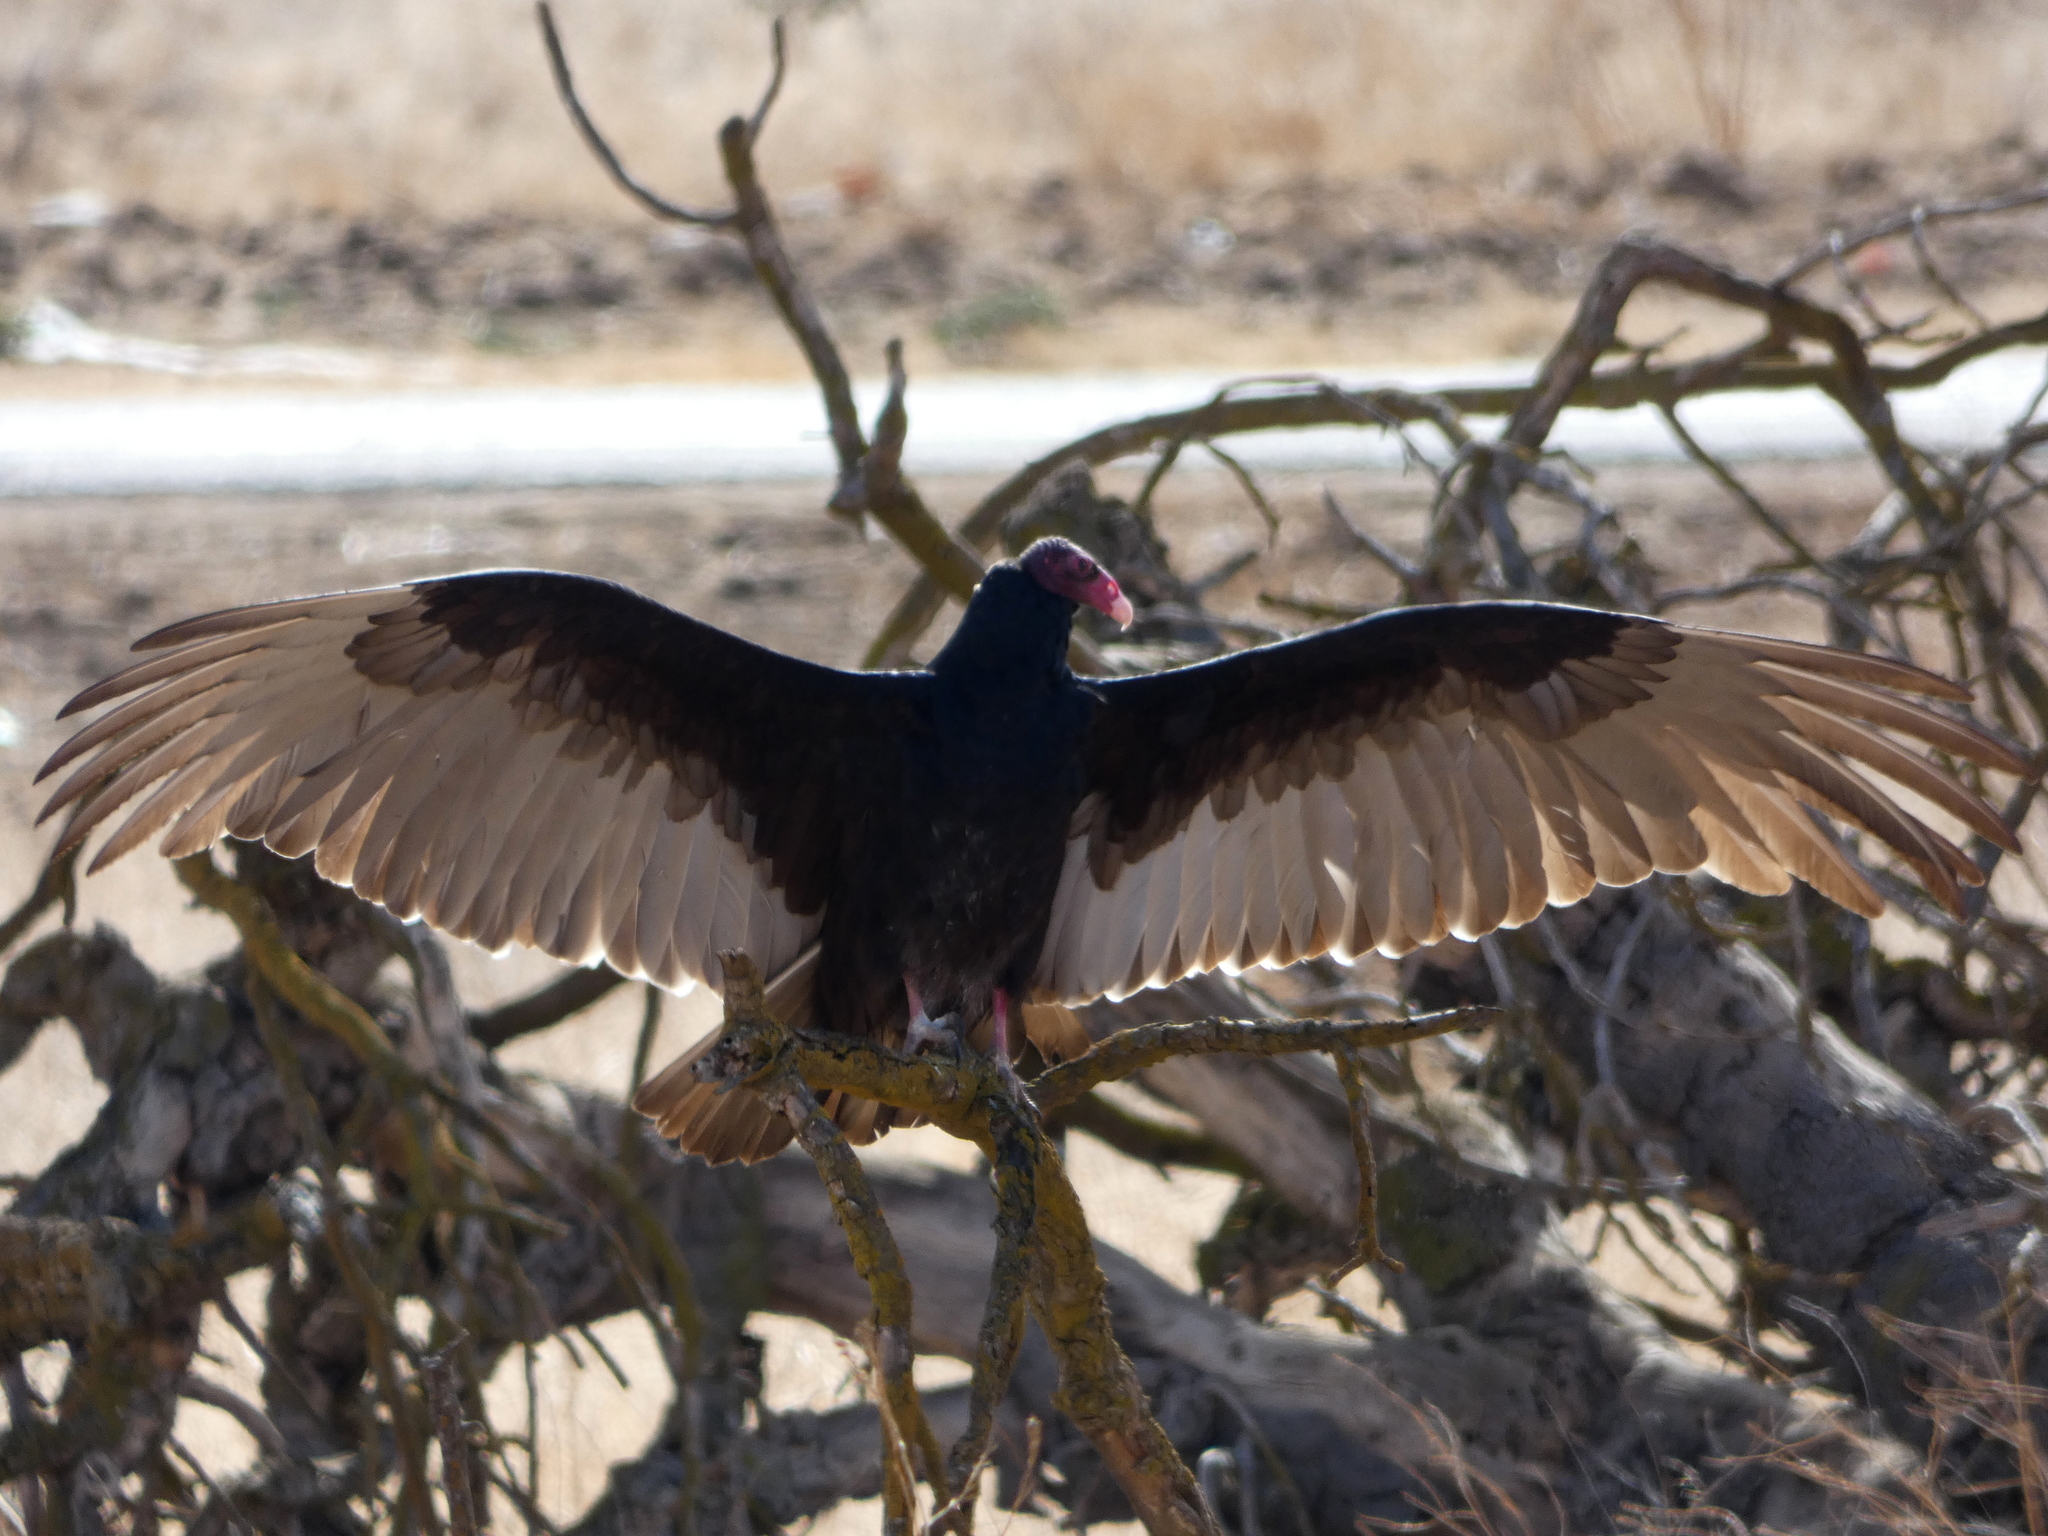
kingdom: Animalia
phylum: Chordata
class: Aves
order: Accipitriformes
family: Cathartidae
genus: Cathartes
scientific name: Cathartes aura
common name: Turkey vulture
